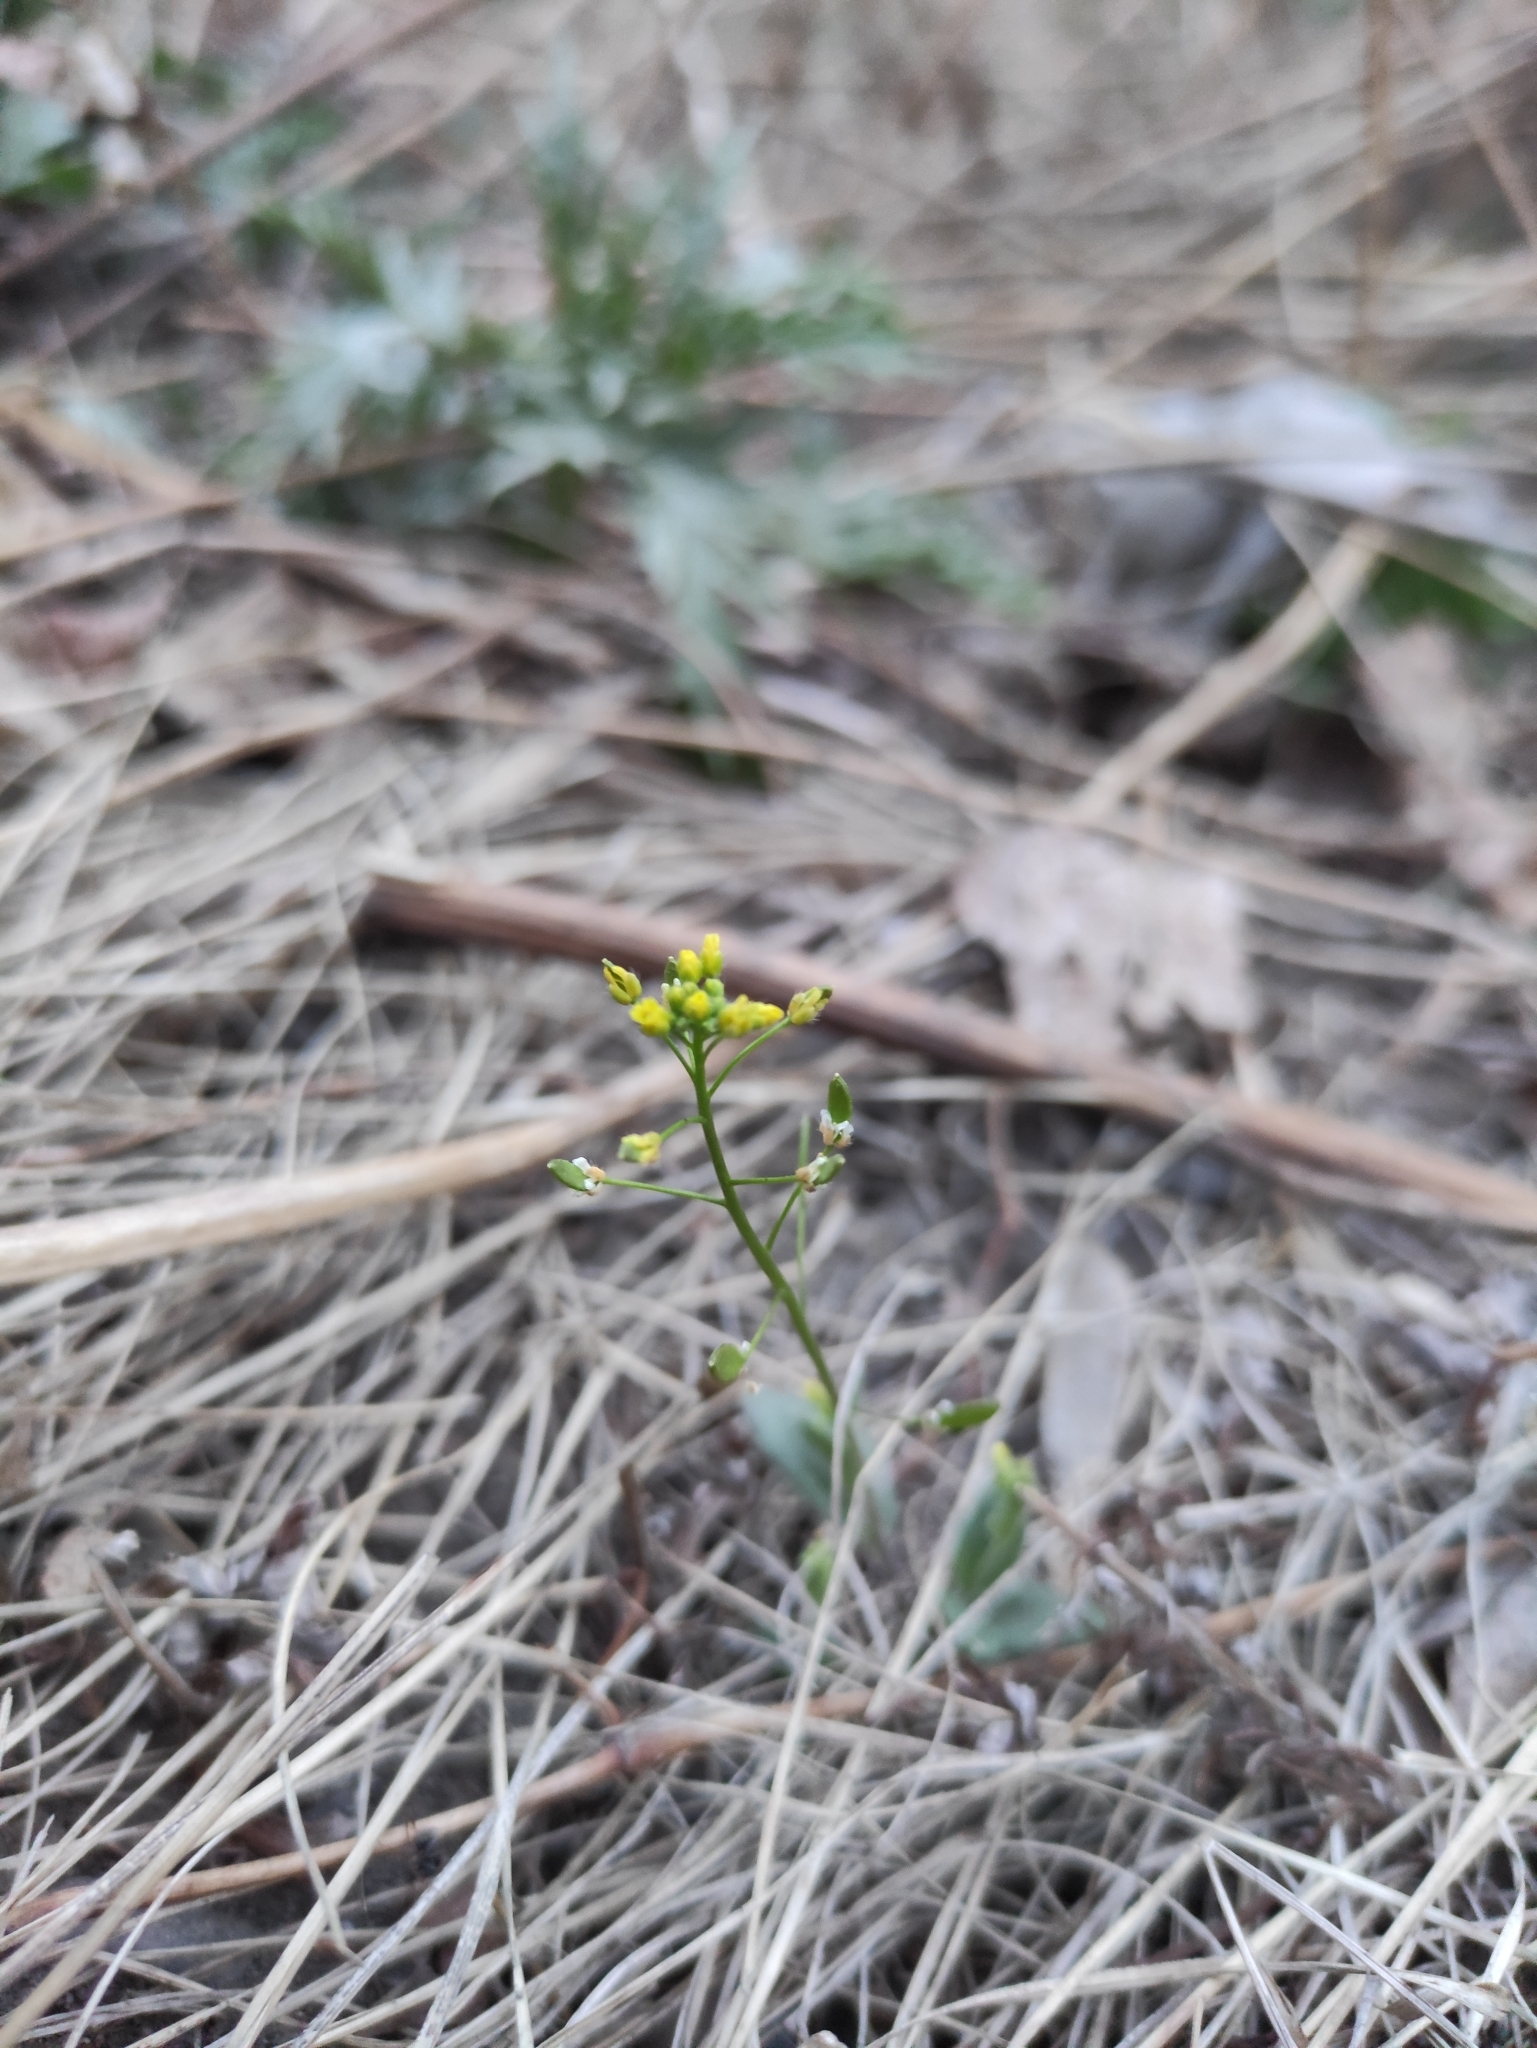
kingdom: Plantae
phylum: Tracheophyta
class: Magnoliopsida
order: Brassicales
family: Brassicaceae
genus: Draba
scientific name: Draba nemorosa
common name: Wood whitlow-grass
